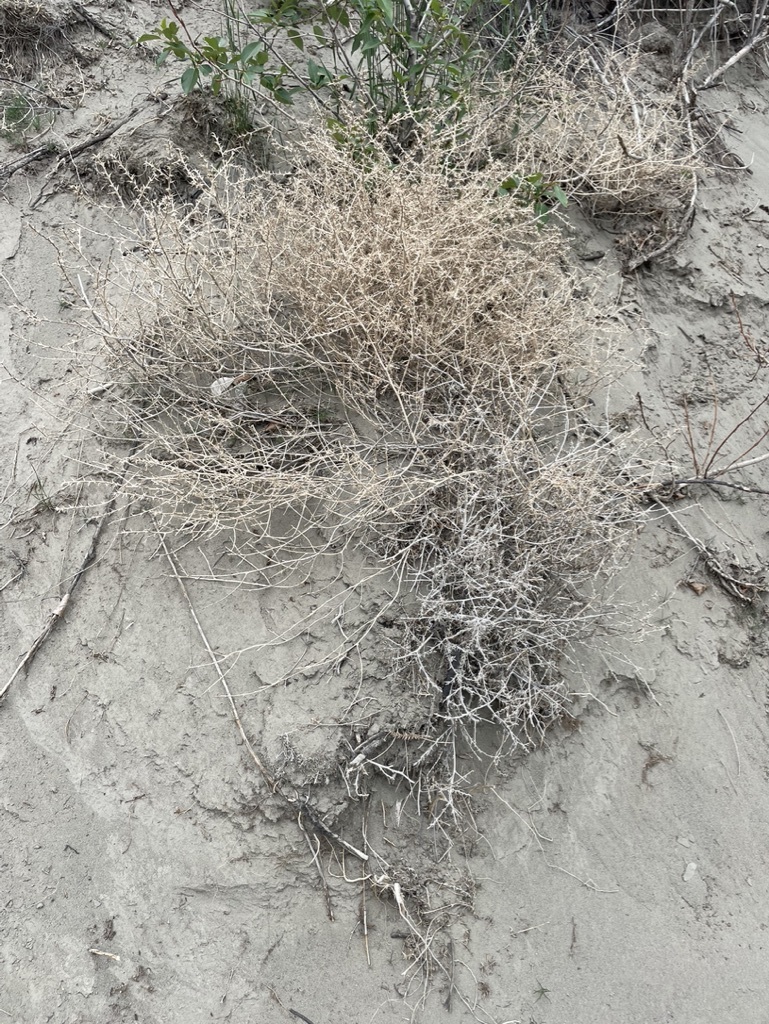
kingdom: Plantae
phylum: Tracheophyta
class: Magnoliopsida
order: Caryophyllales
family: Amaranthaceae
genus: Salsola
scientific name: Salsola tragus
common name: Prickly russian thistle
